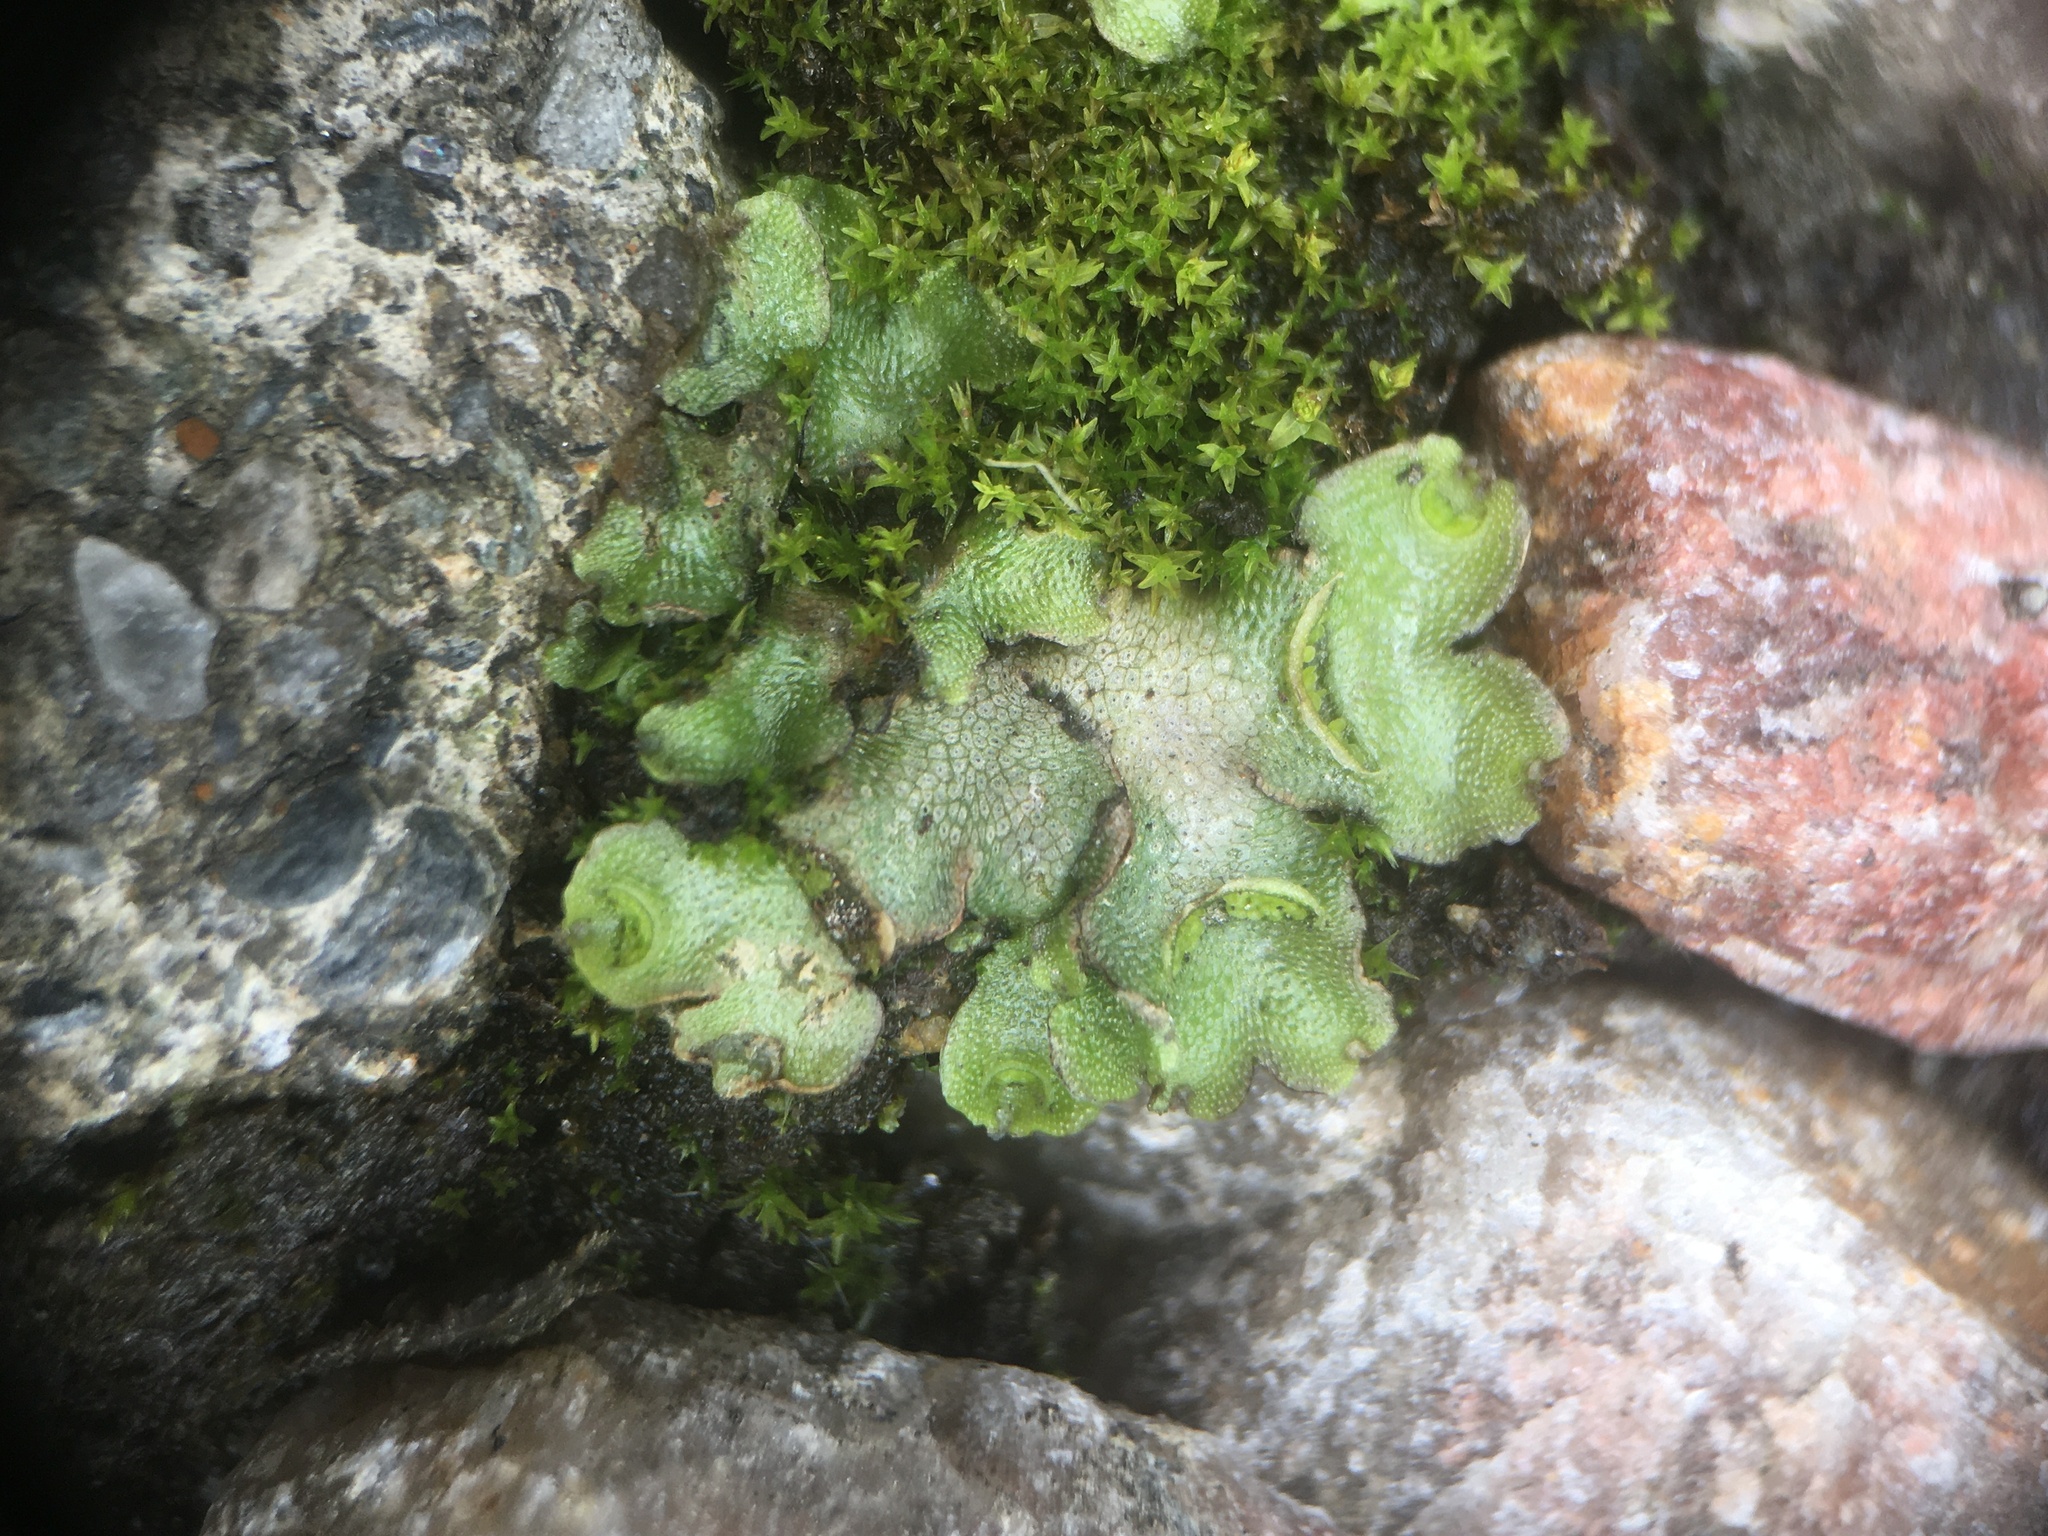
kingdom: Plantae
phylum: Marchantiophyta
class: Marchantiopsida
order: Lunulariales
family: Lunulariaceae
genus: Lunularia
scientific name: Lunularia cruciata
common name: Crescent-cup liverwort
